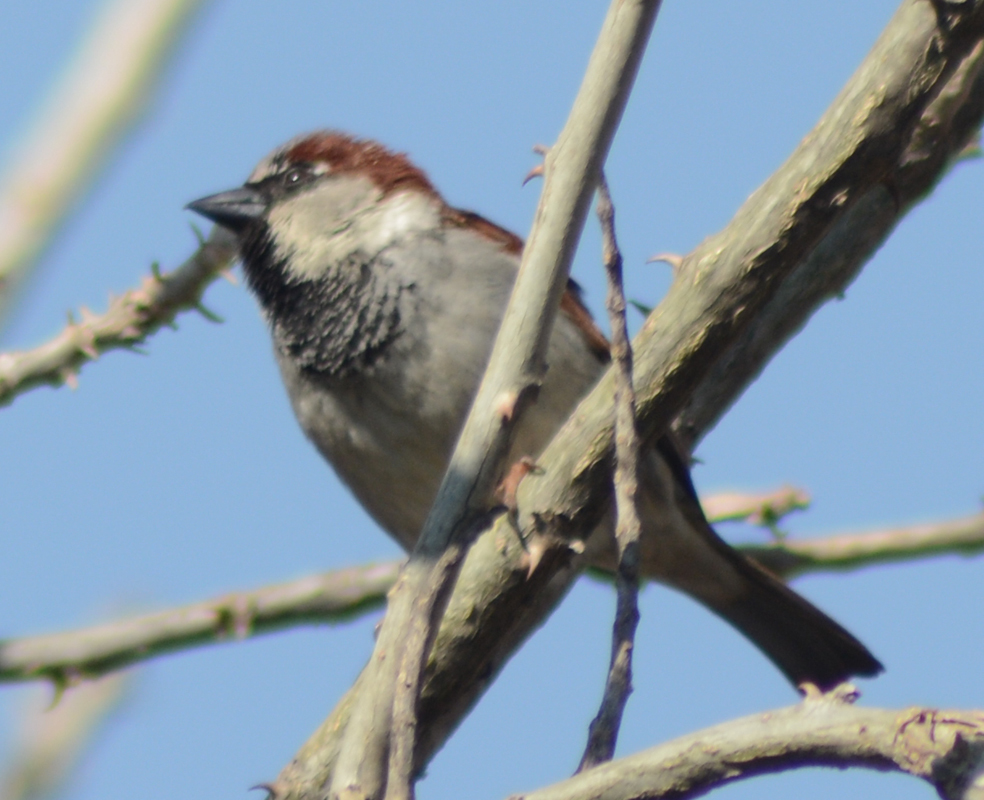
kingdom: Animalia
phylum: Chordata
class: Aves
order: Passeriformes
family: Passeridae
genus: Passer
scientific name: Passer domesticus
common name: House sparrow
